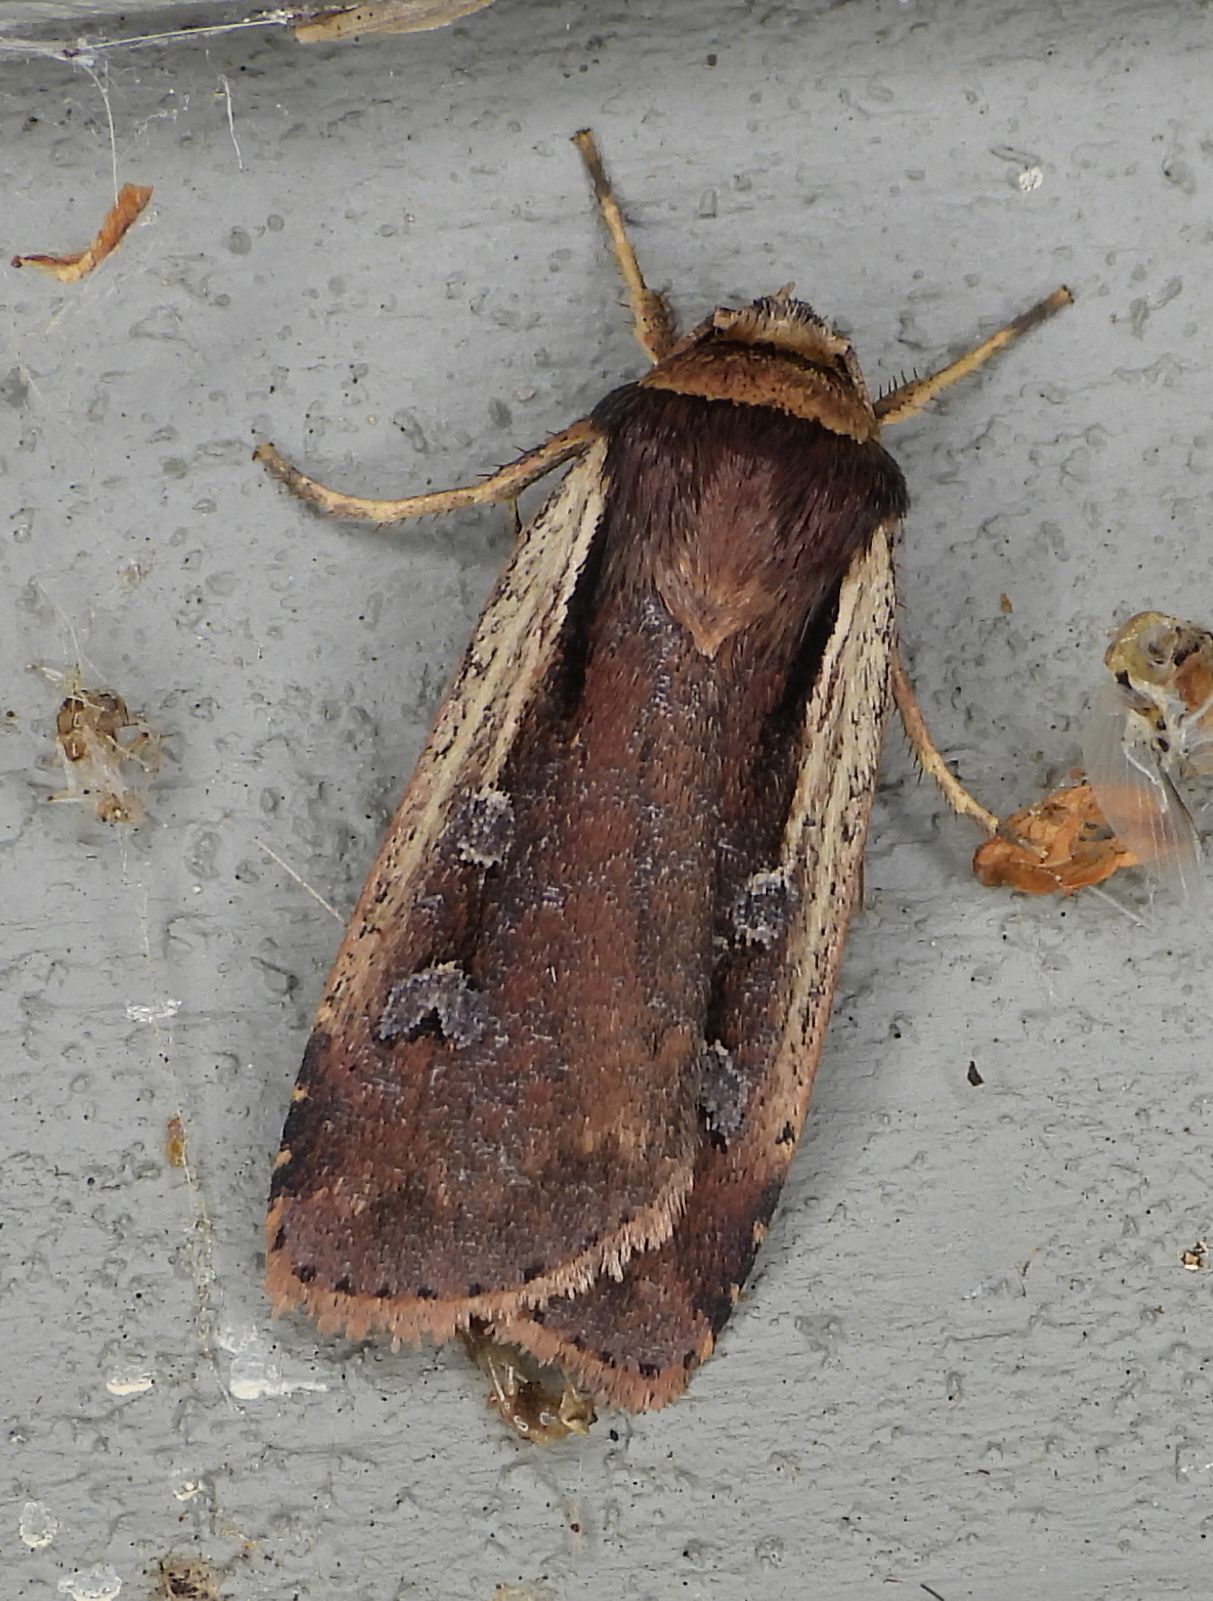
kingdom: Animalia
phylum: Arthropoda
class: Insecta
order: Lepidoptera
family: Noctuidae
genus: Ochropleura
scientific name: Ochropleura implecta
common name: Flame-shouldered dart
